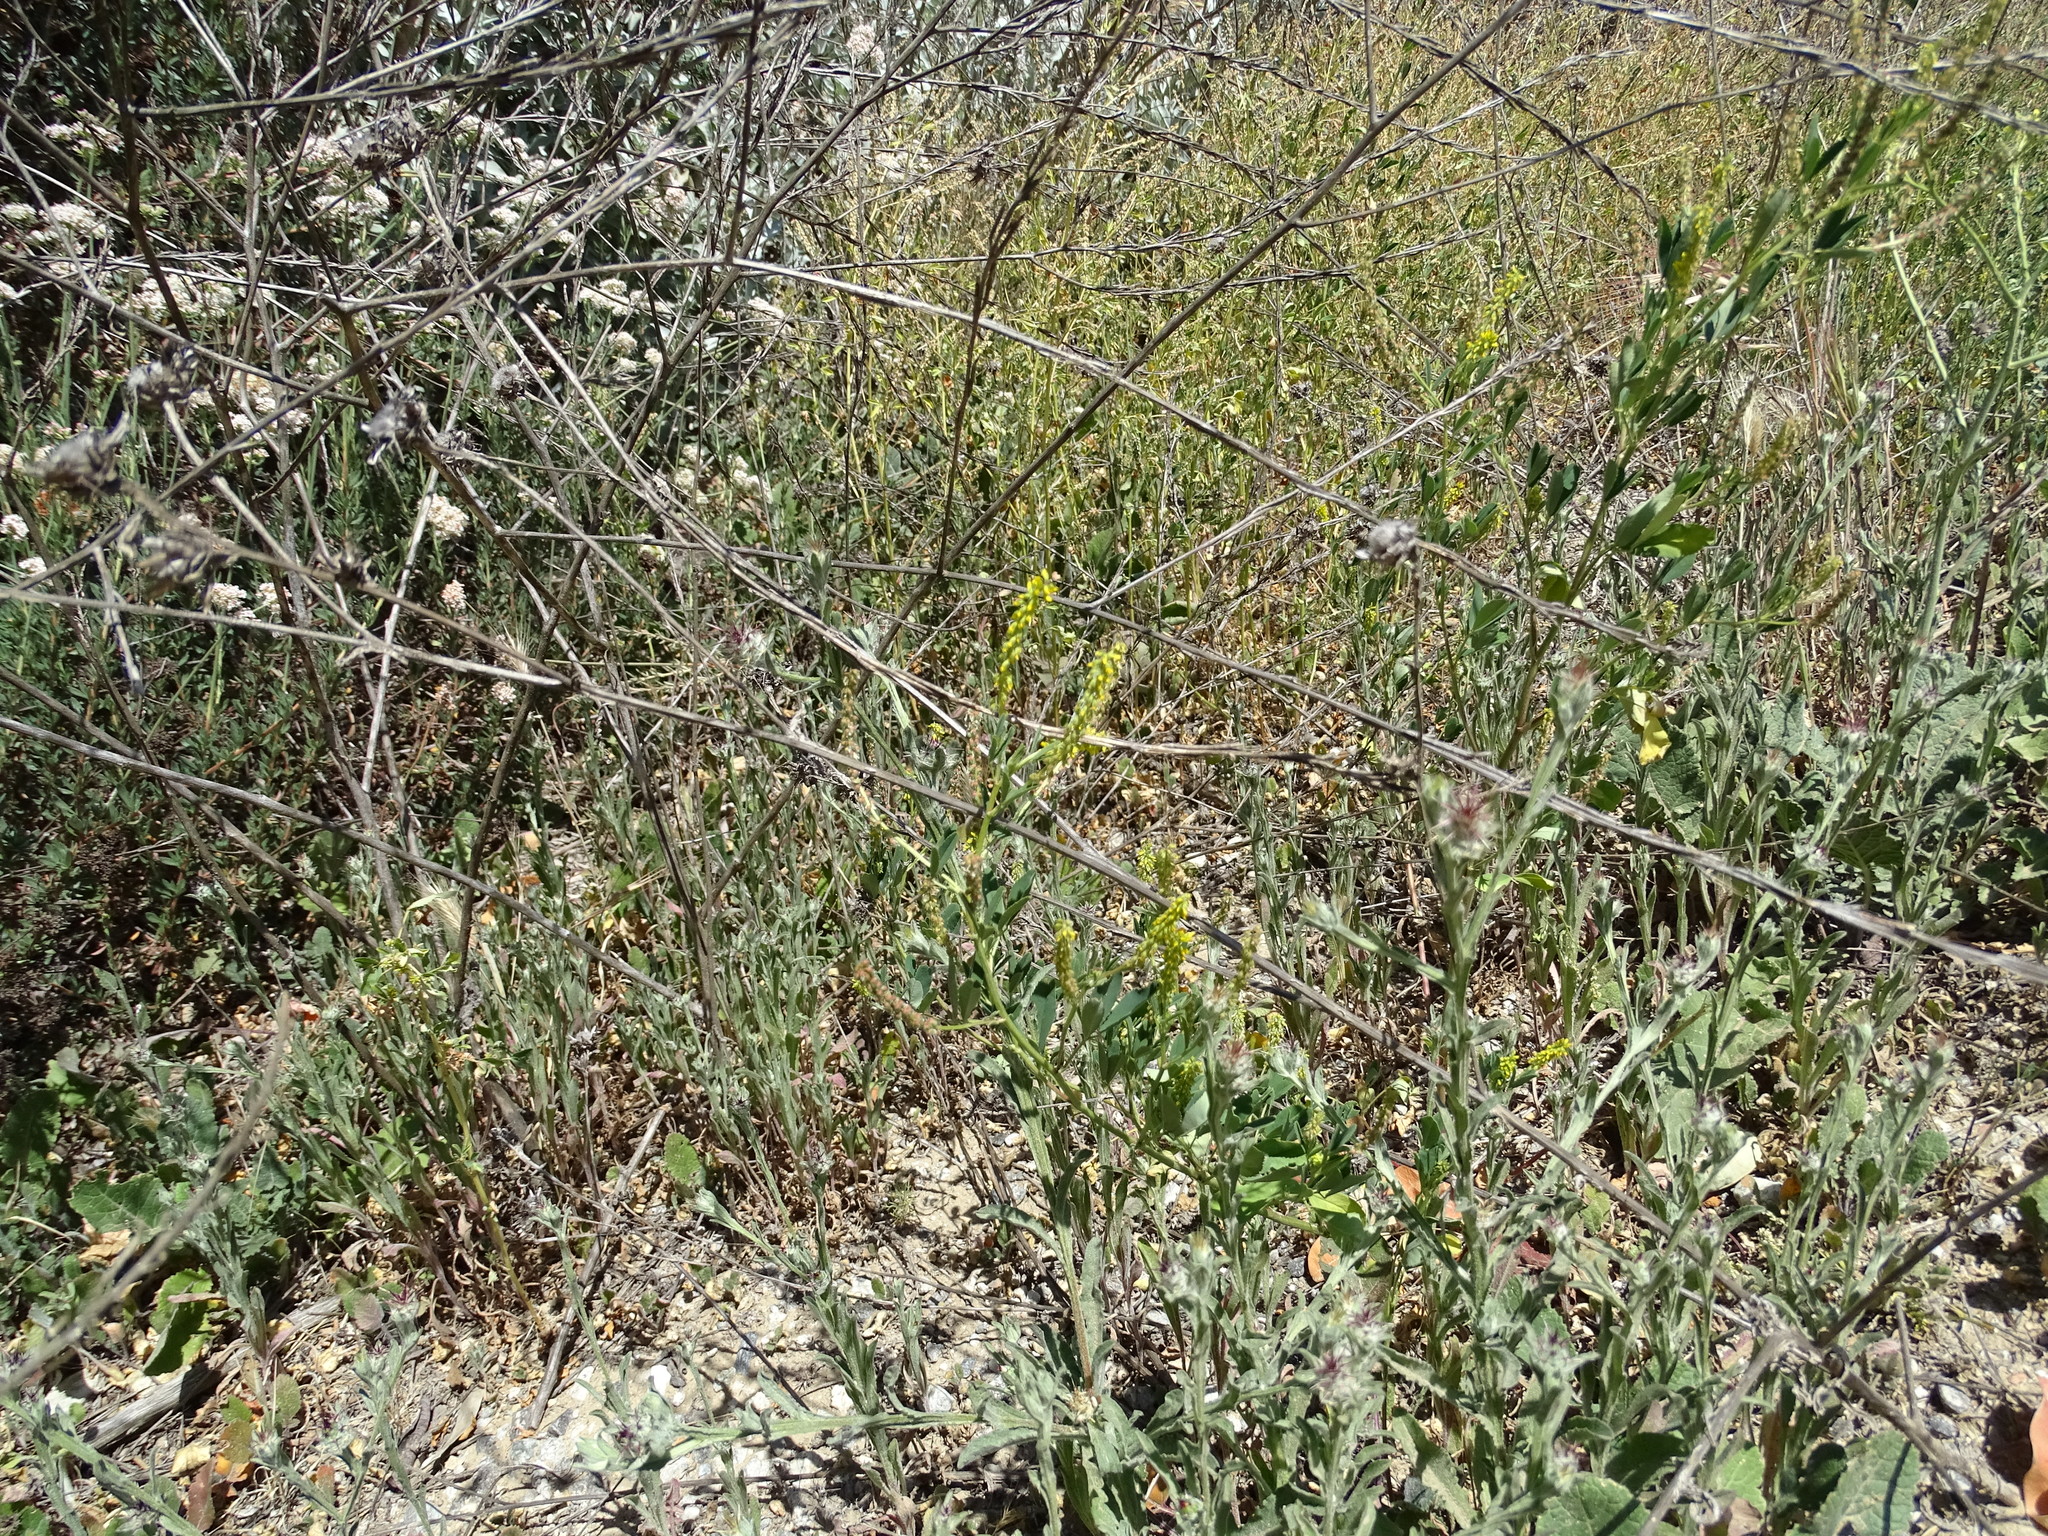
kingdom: Plantae
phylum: Tracheophyta
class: Magnoliopsida
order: Fabales
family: Fabaceae
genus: Melilotus
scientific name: Melilotus indicus
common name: Small melilot
